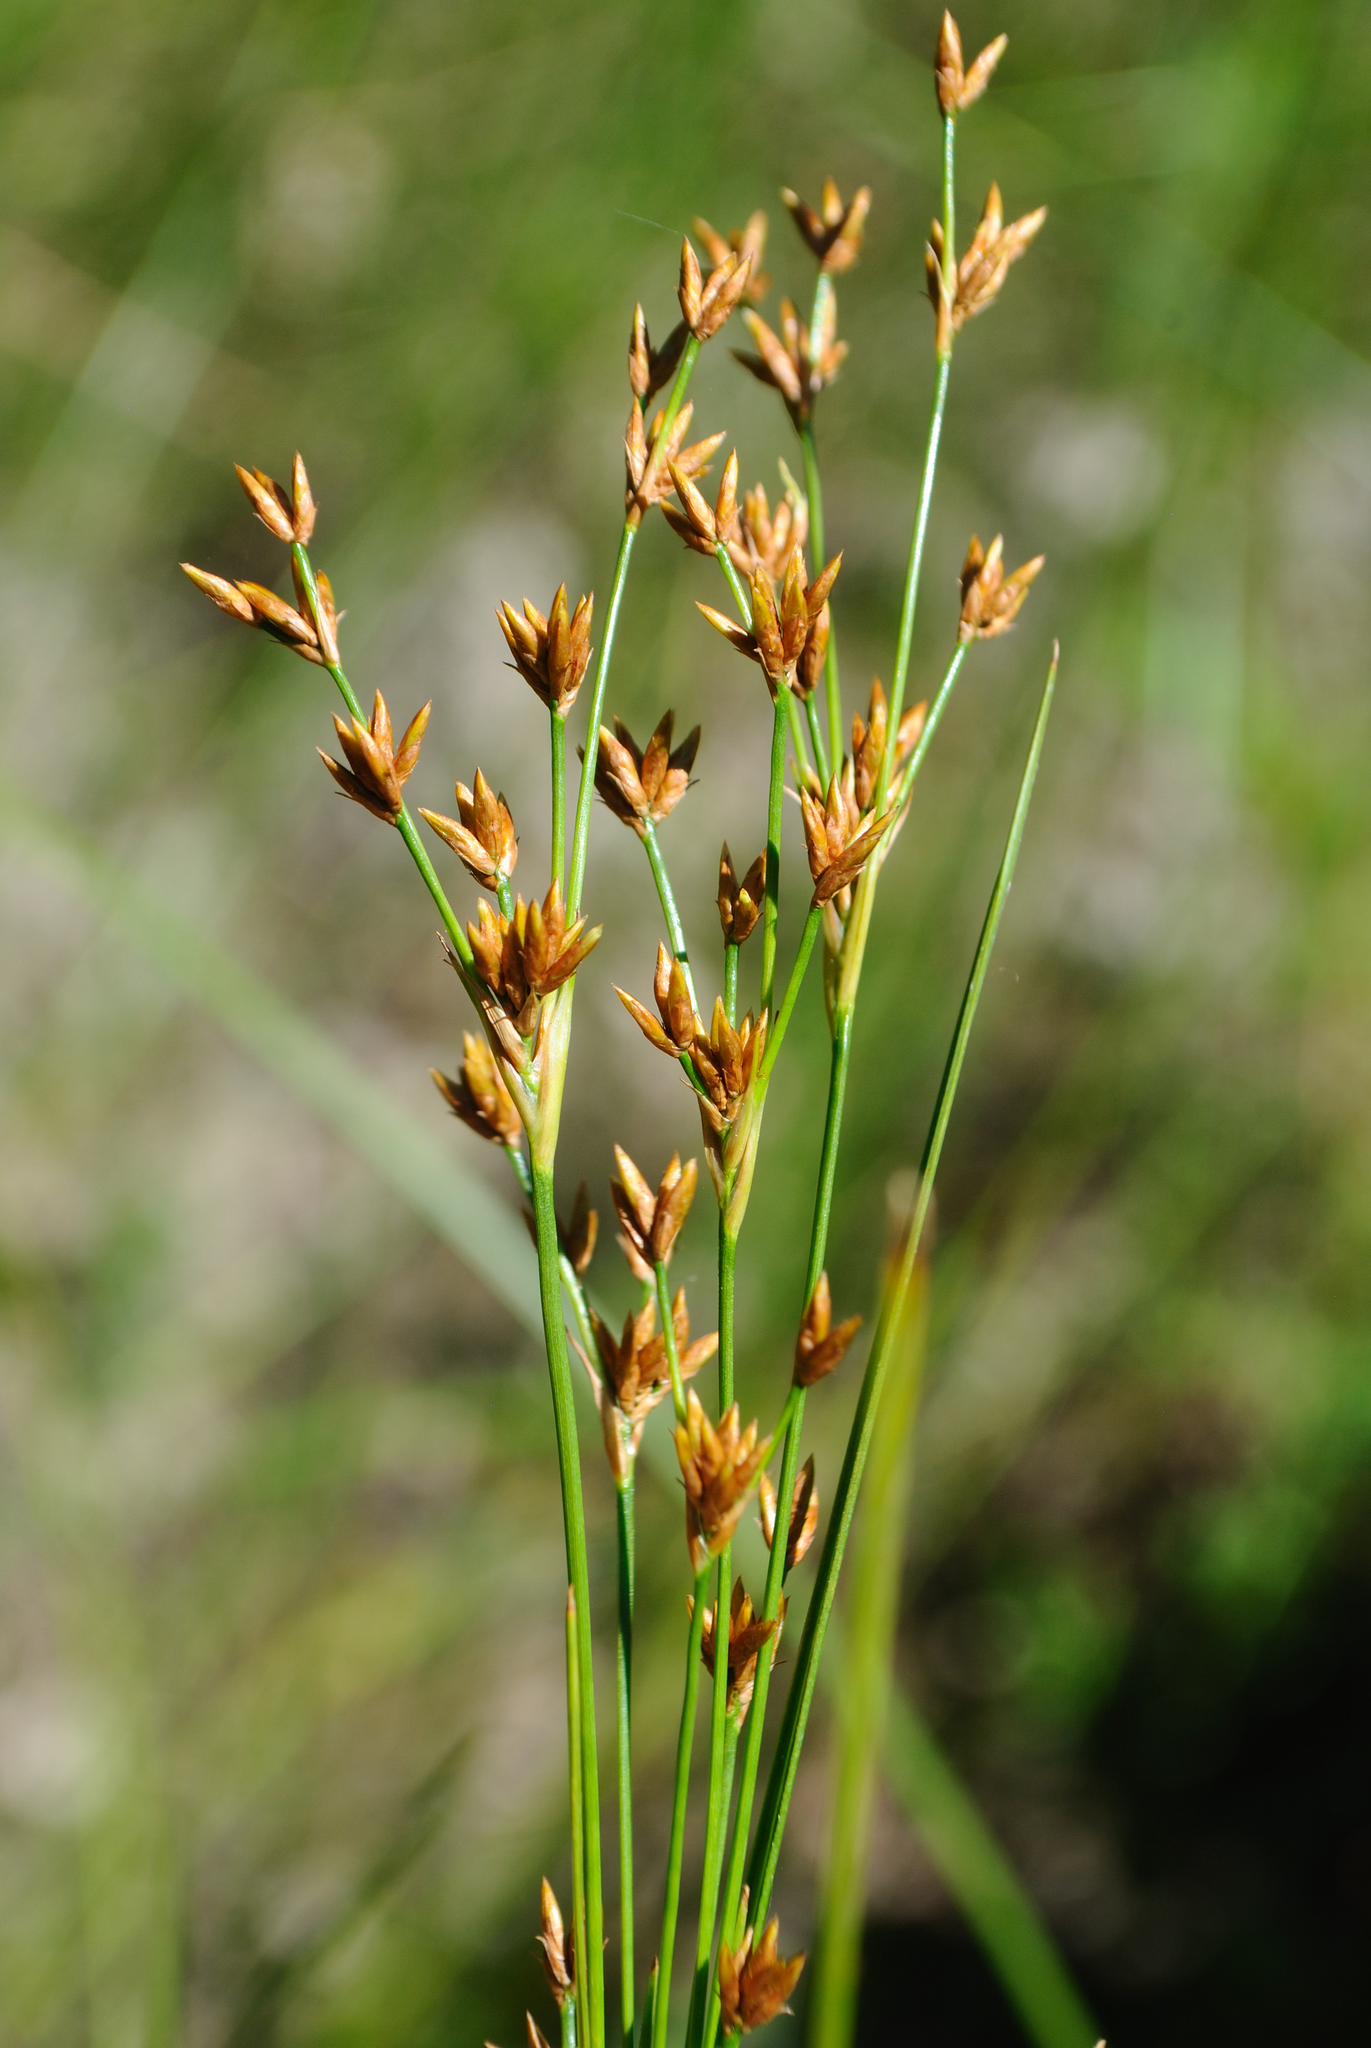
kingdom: Plantae
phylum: Tracheophyta
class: Liliopsida
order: Poales
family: Cyperaceae
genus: Cladium
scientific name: Cladium mariscoides
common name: Smooth sawgrass
